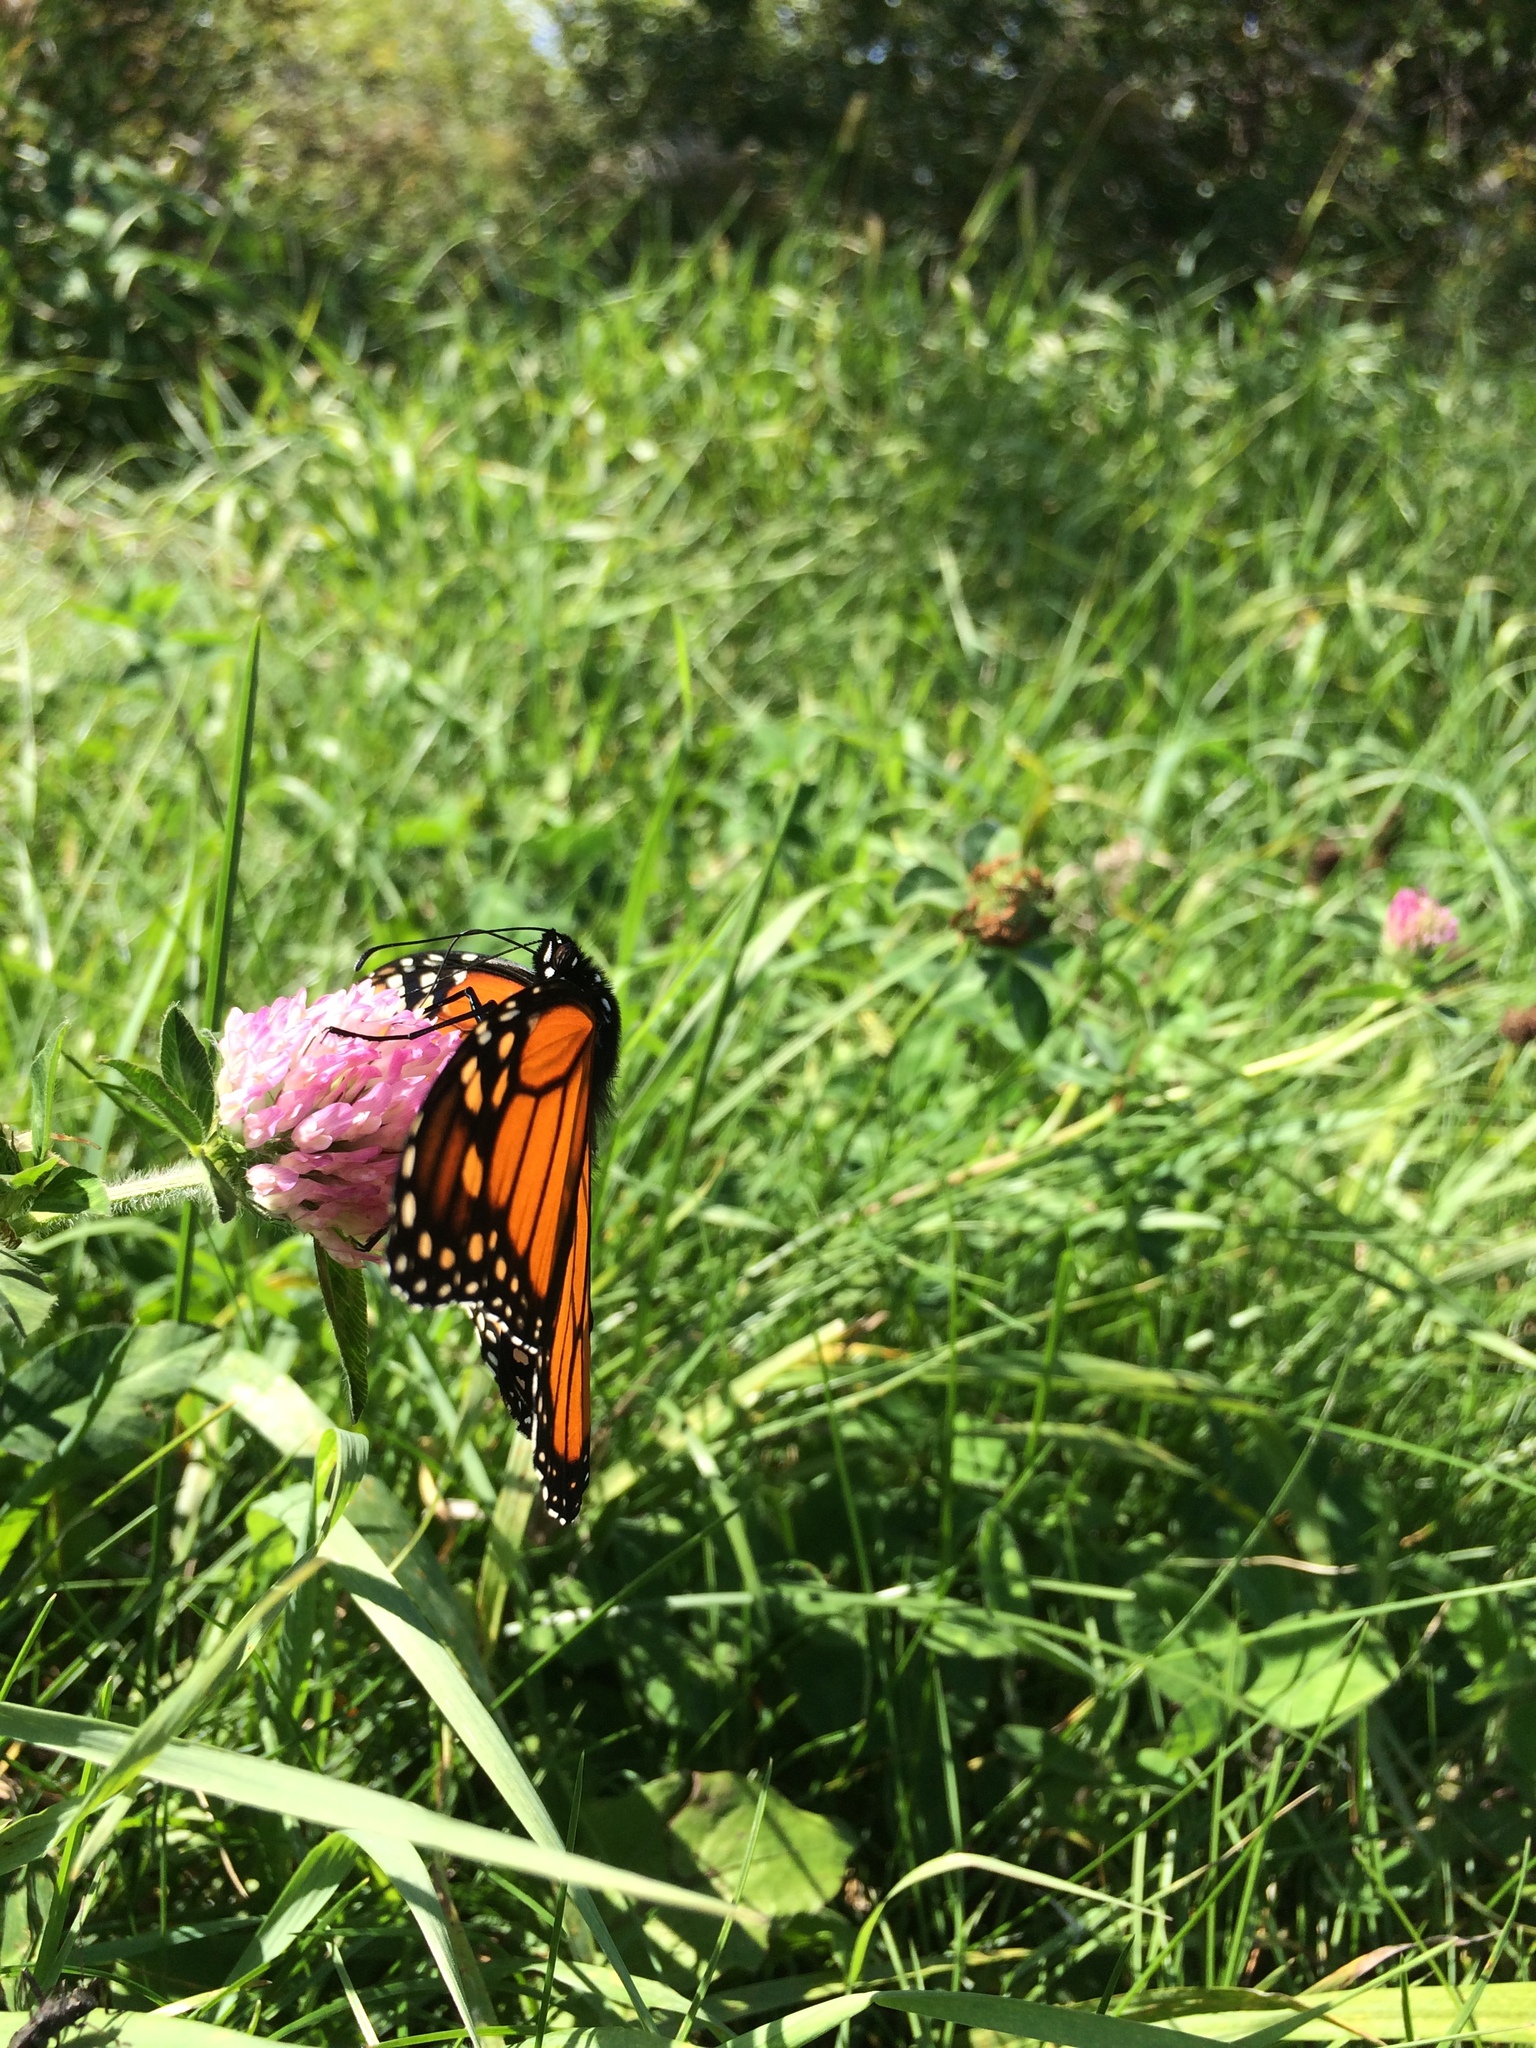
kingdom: Animalia
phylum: Arthropoda
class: Insecta
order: Lepidoptera
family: Nymphalidae
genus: Danaus
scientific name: Danaus plexippus
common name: Monarch
